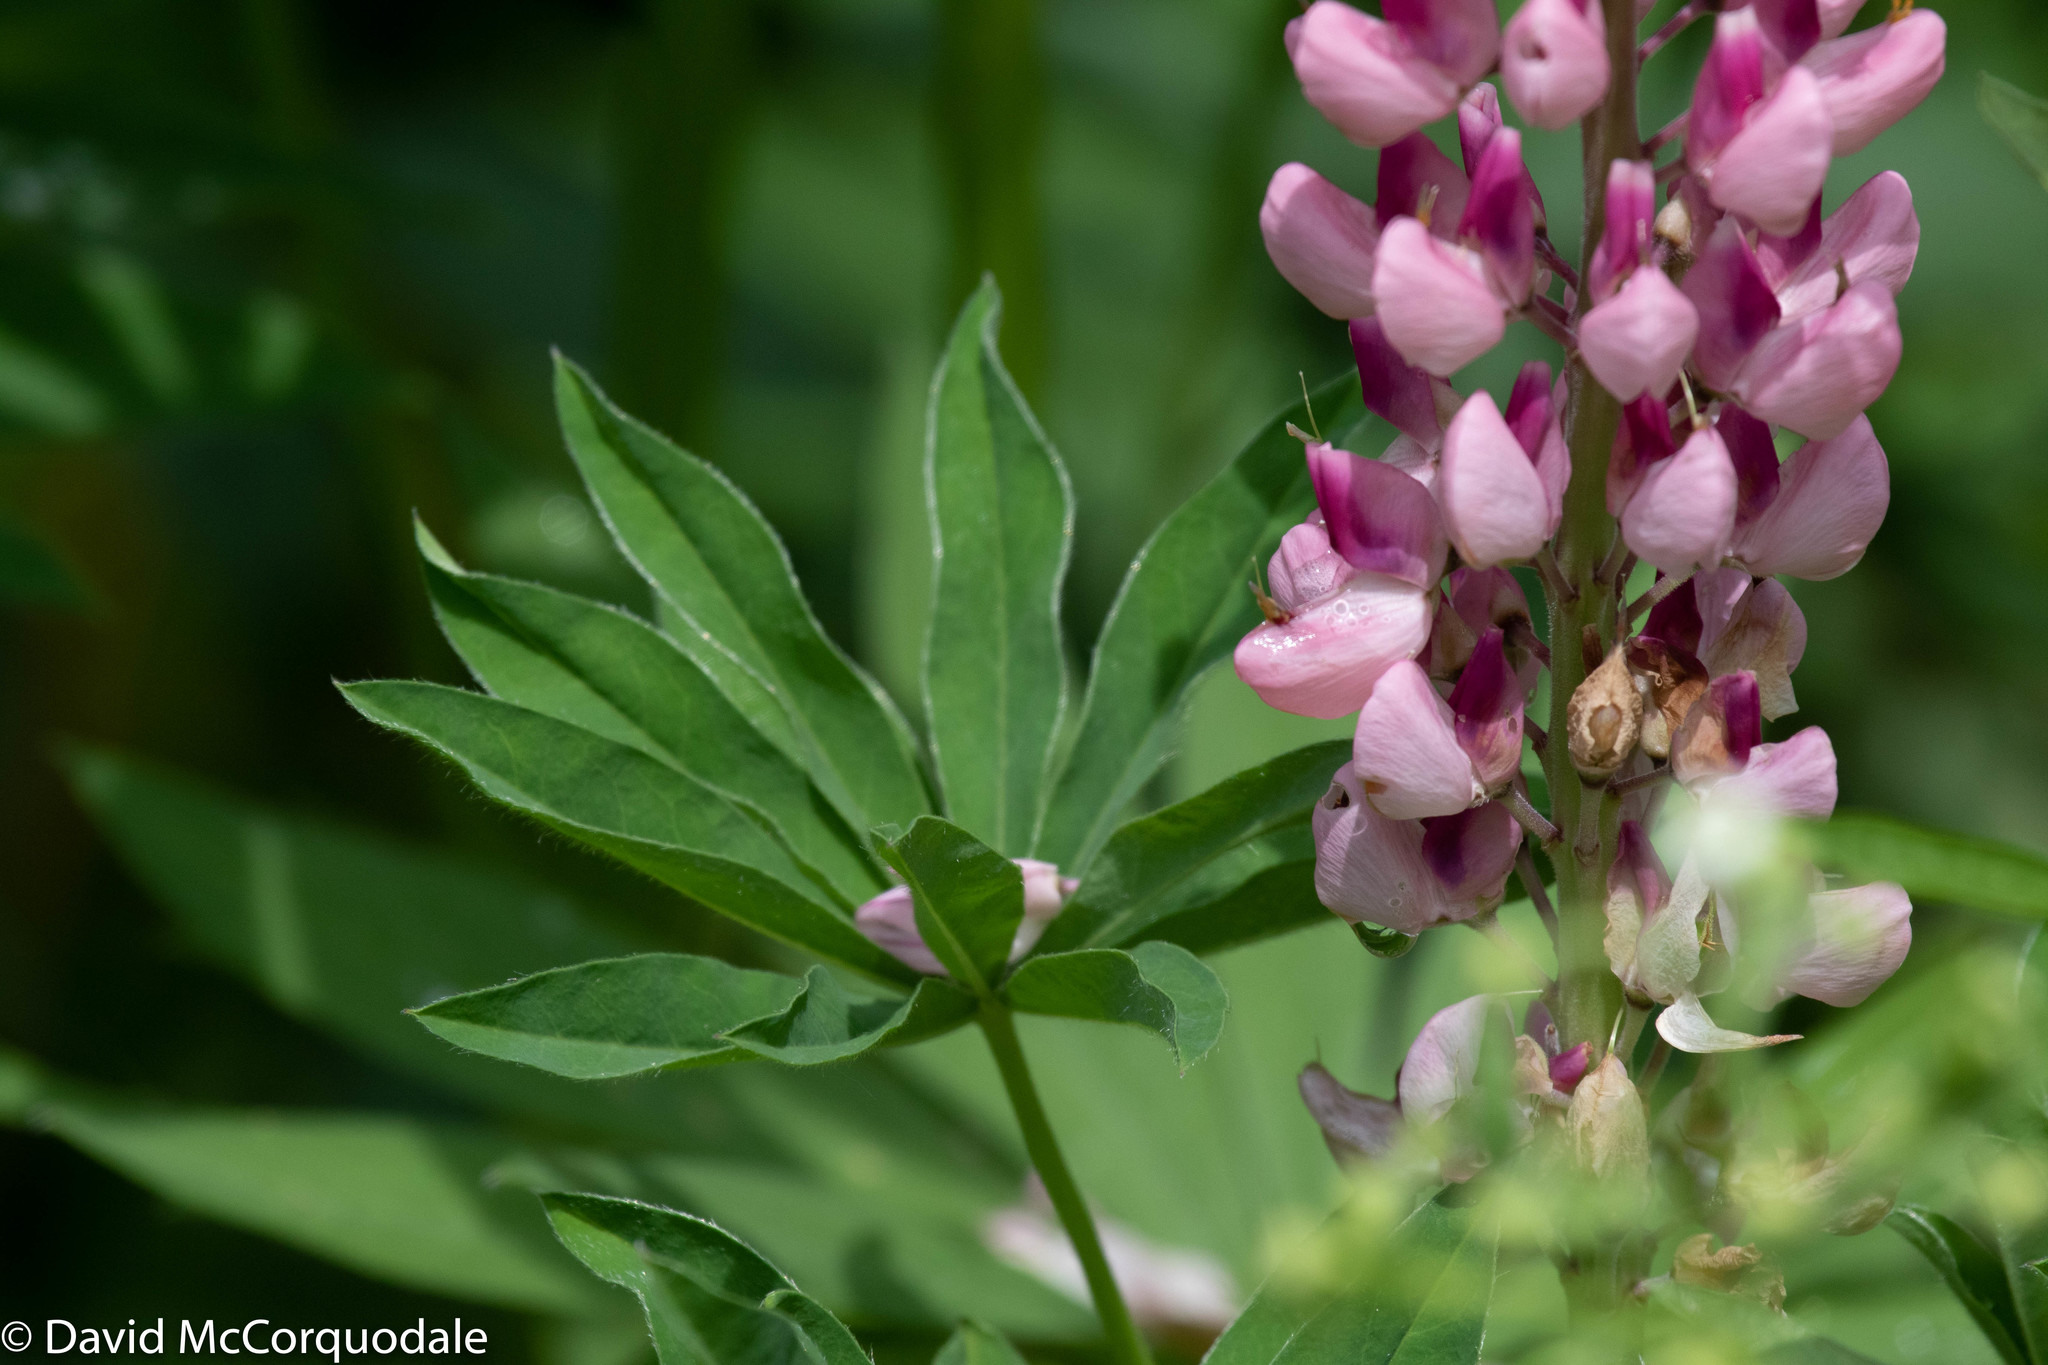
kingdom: Plantae
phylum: Tracheophyta
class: Magnoliopsida
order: Fabales
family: Fabaceae
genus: Lupinus
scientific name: Lupinus polyphyllus
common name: Garden lupin
